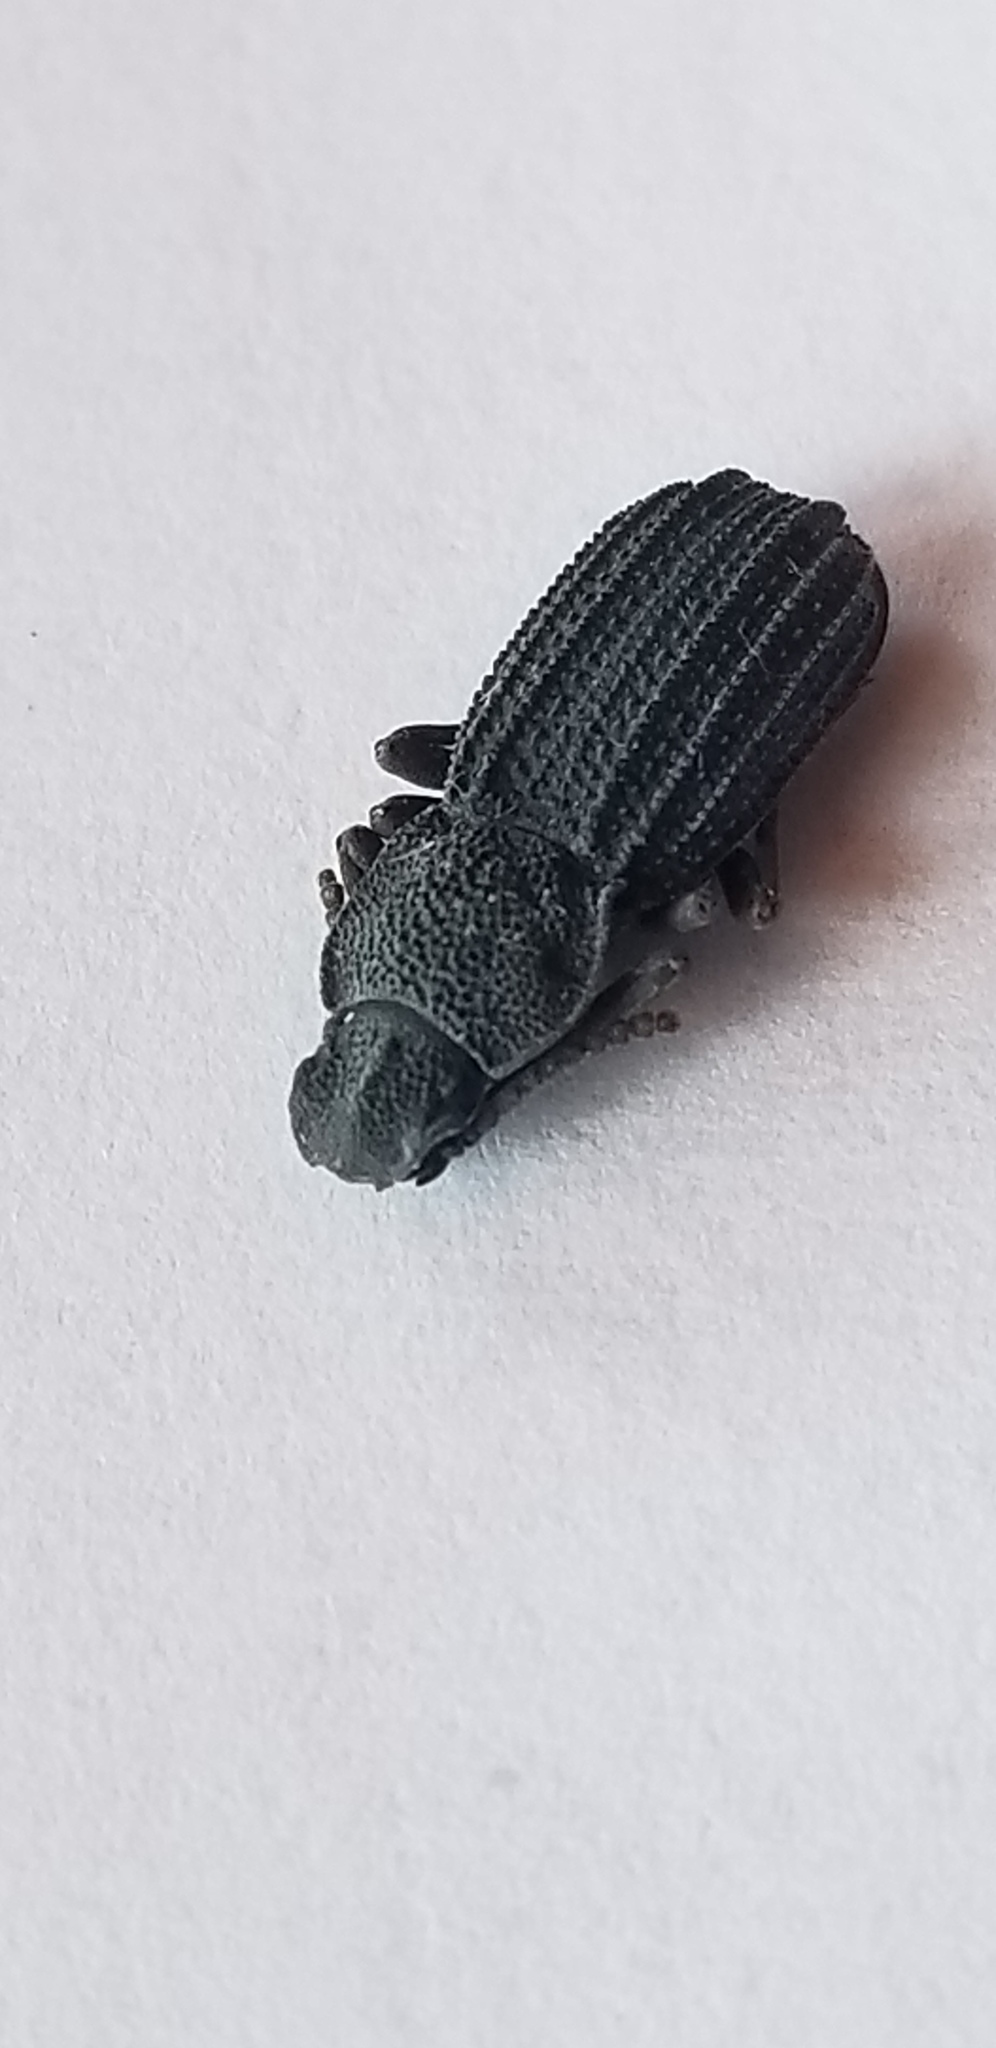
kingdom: Animalia
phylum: Arthropoda
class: Insecta
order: Coleoptera
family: Tenebrionidae
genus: Nyctoporis
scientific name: Nyctoporis carinata
